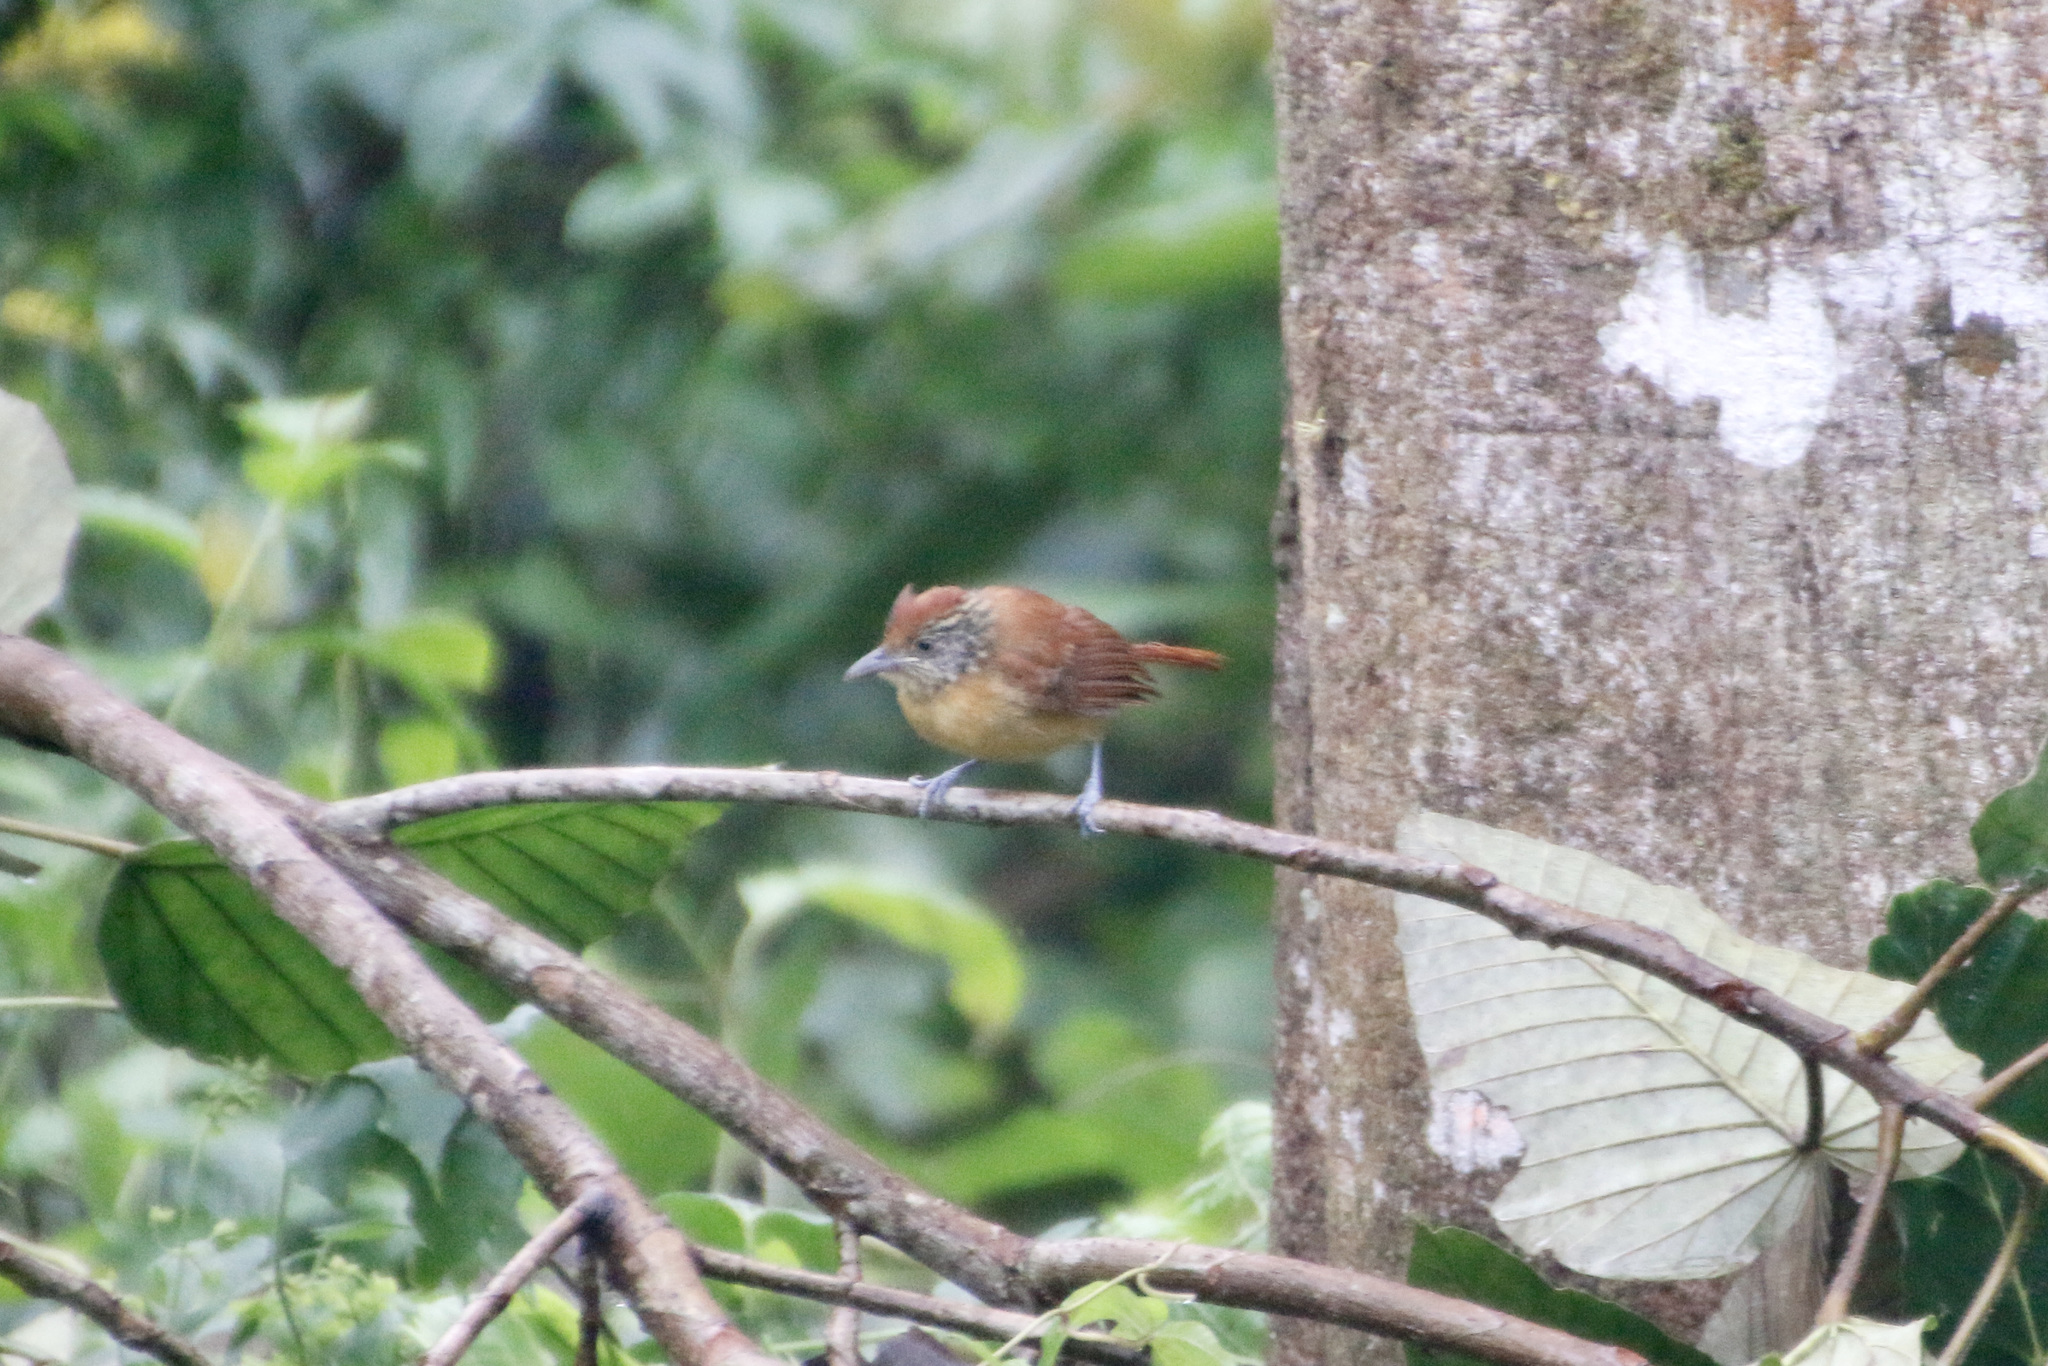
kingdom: Animalia
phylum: Chordata
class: Aves
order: Passeriformes
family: Thamnophilidae
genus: Thamnophilus
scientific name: Thamnophilus doliatus
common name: Barred antshrike
